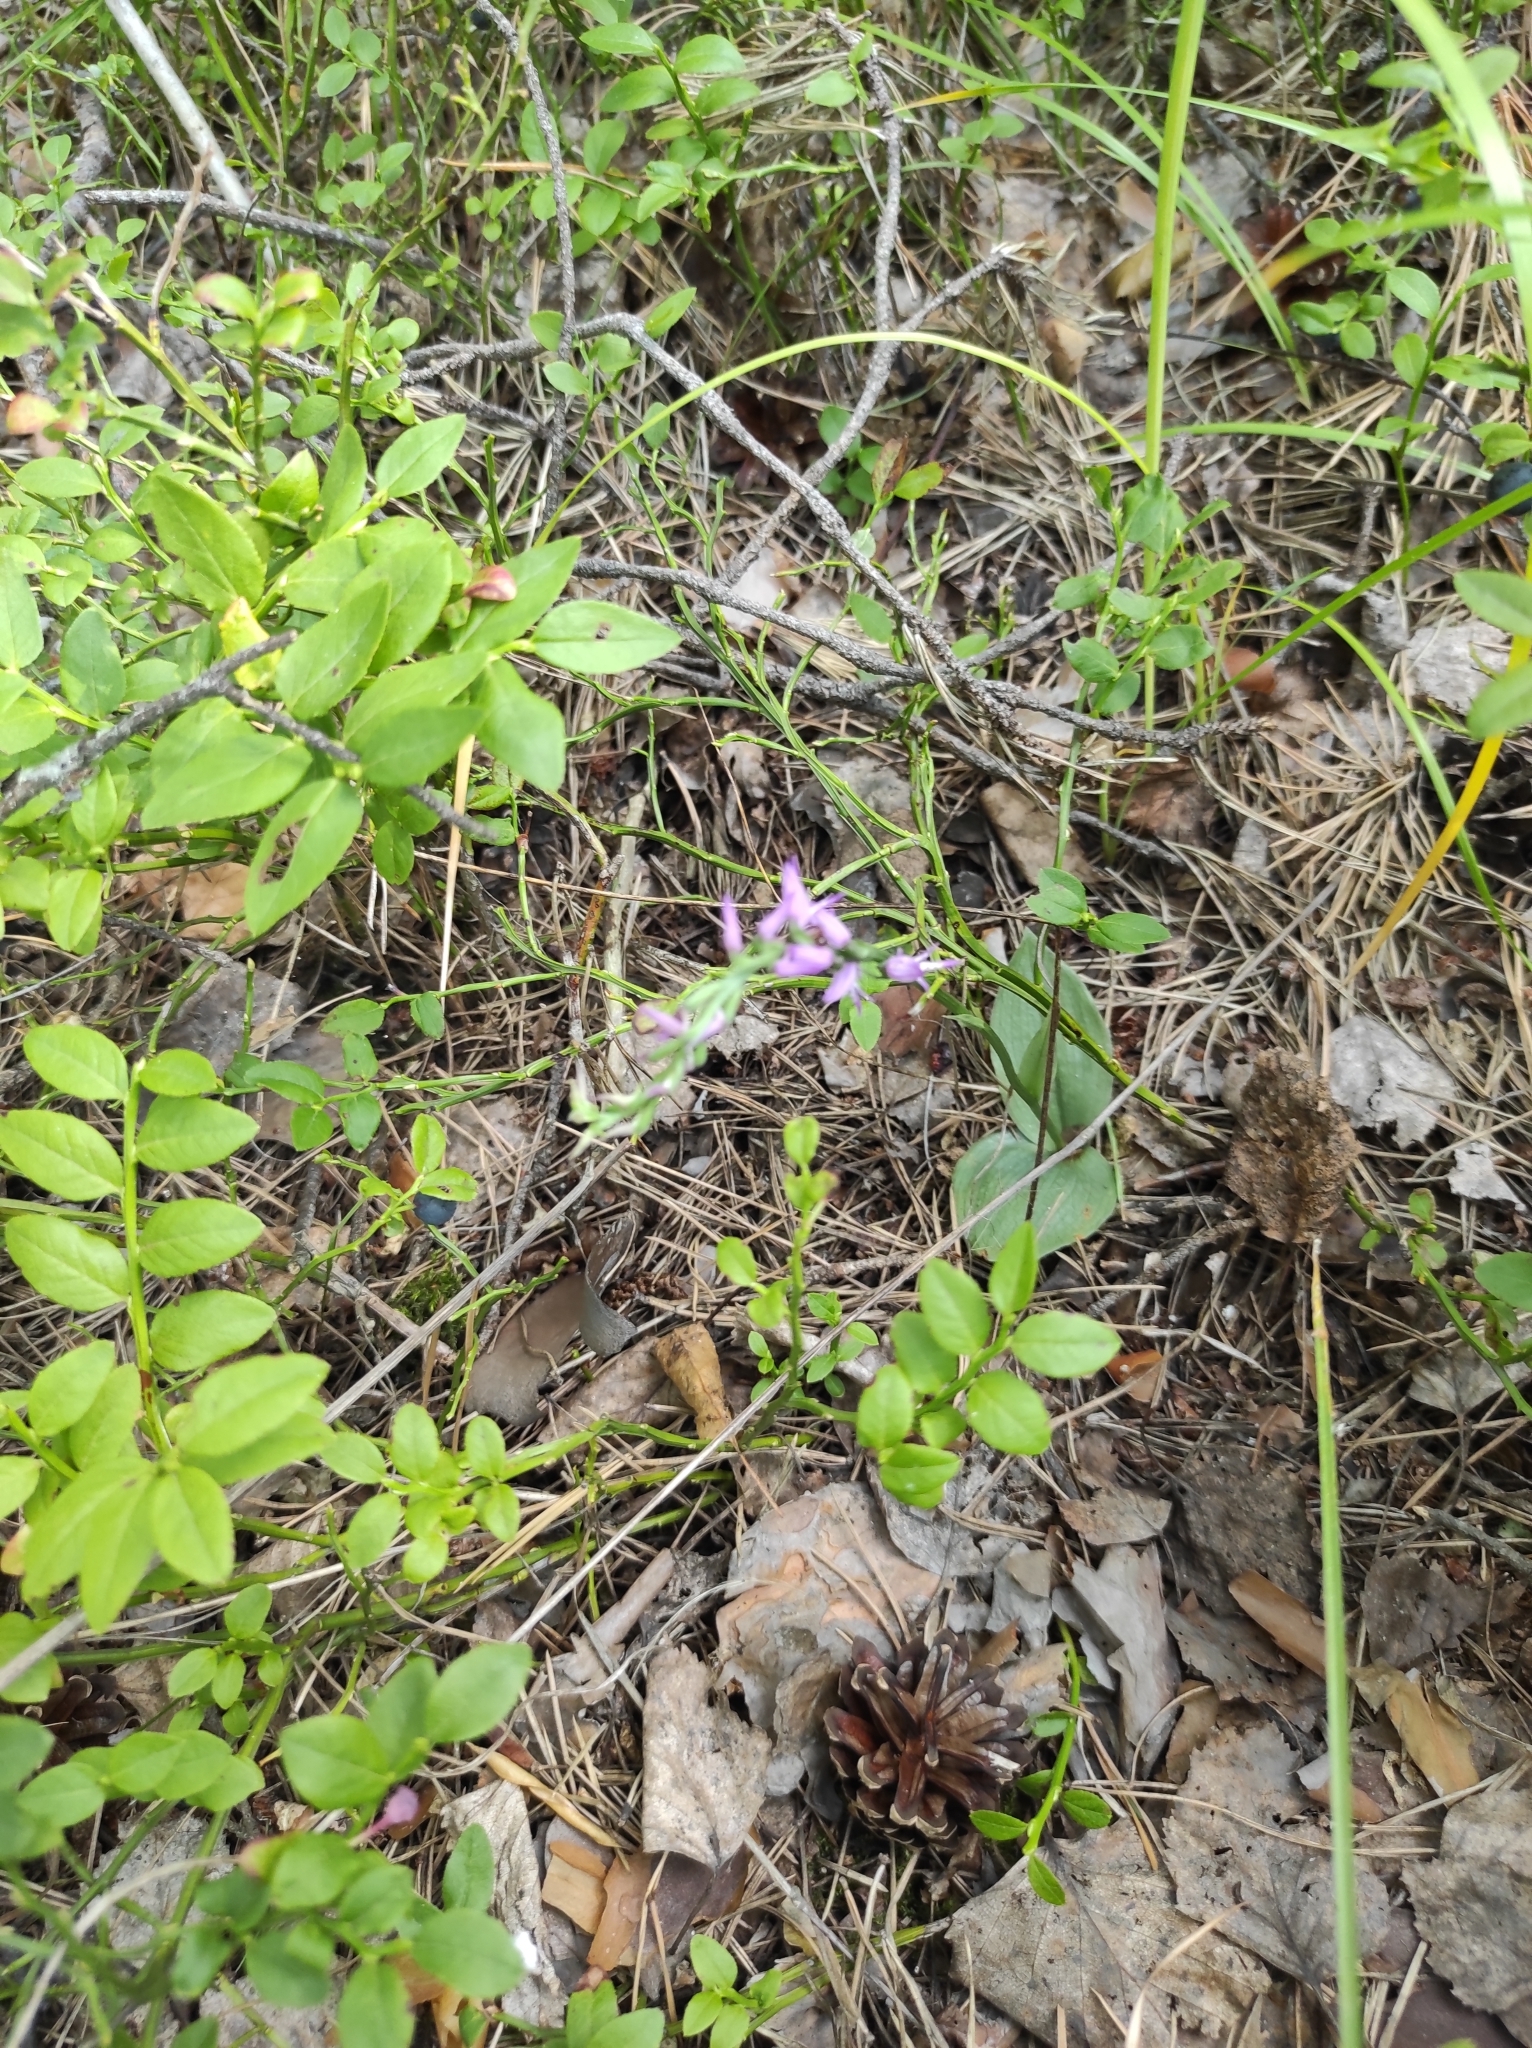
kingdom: Plantae
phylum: Tracheophyta
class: Liliopsida
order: Asparagales
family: Orchidaceae
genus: Hemipilia
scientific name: Hemipilia cucullata
